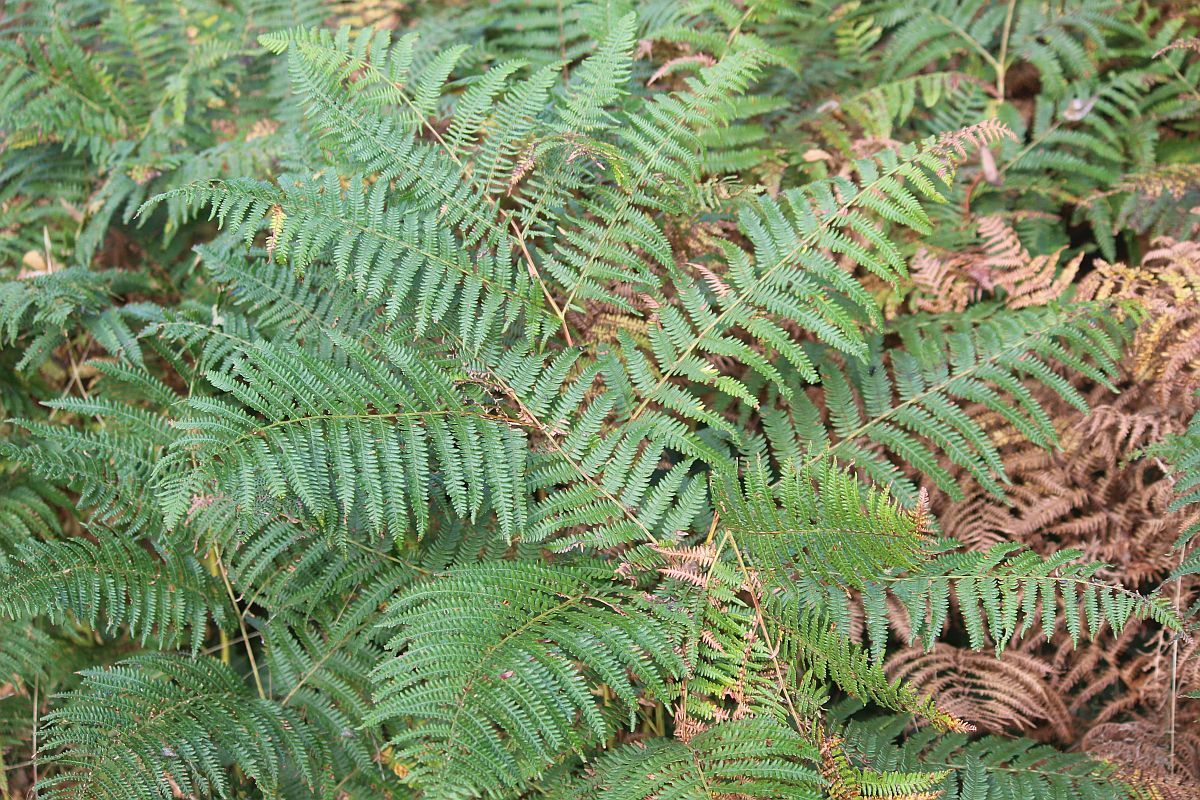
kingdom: Plantae
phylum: Tracheophyta
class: Polypodiopsida
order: Polypodiales
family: Dennstaedtiaceae
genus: Pteridium
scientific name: Pteridium aquilinum
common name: Bracken
